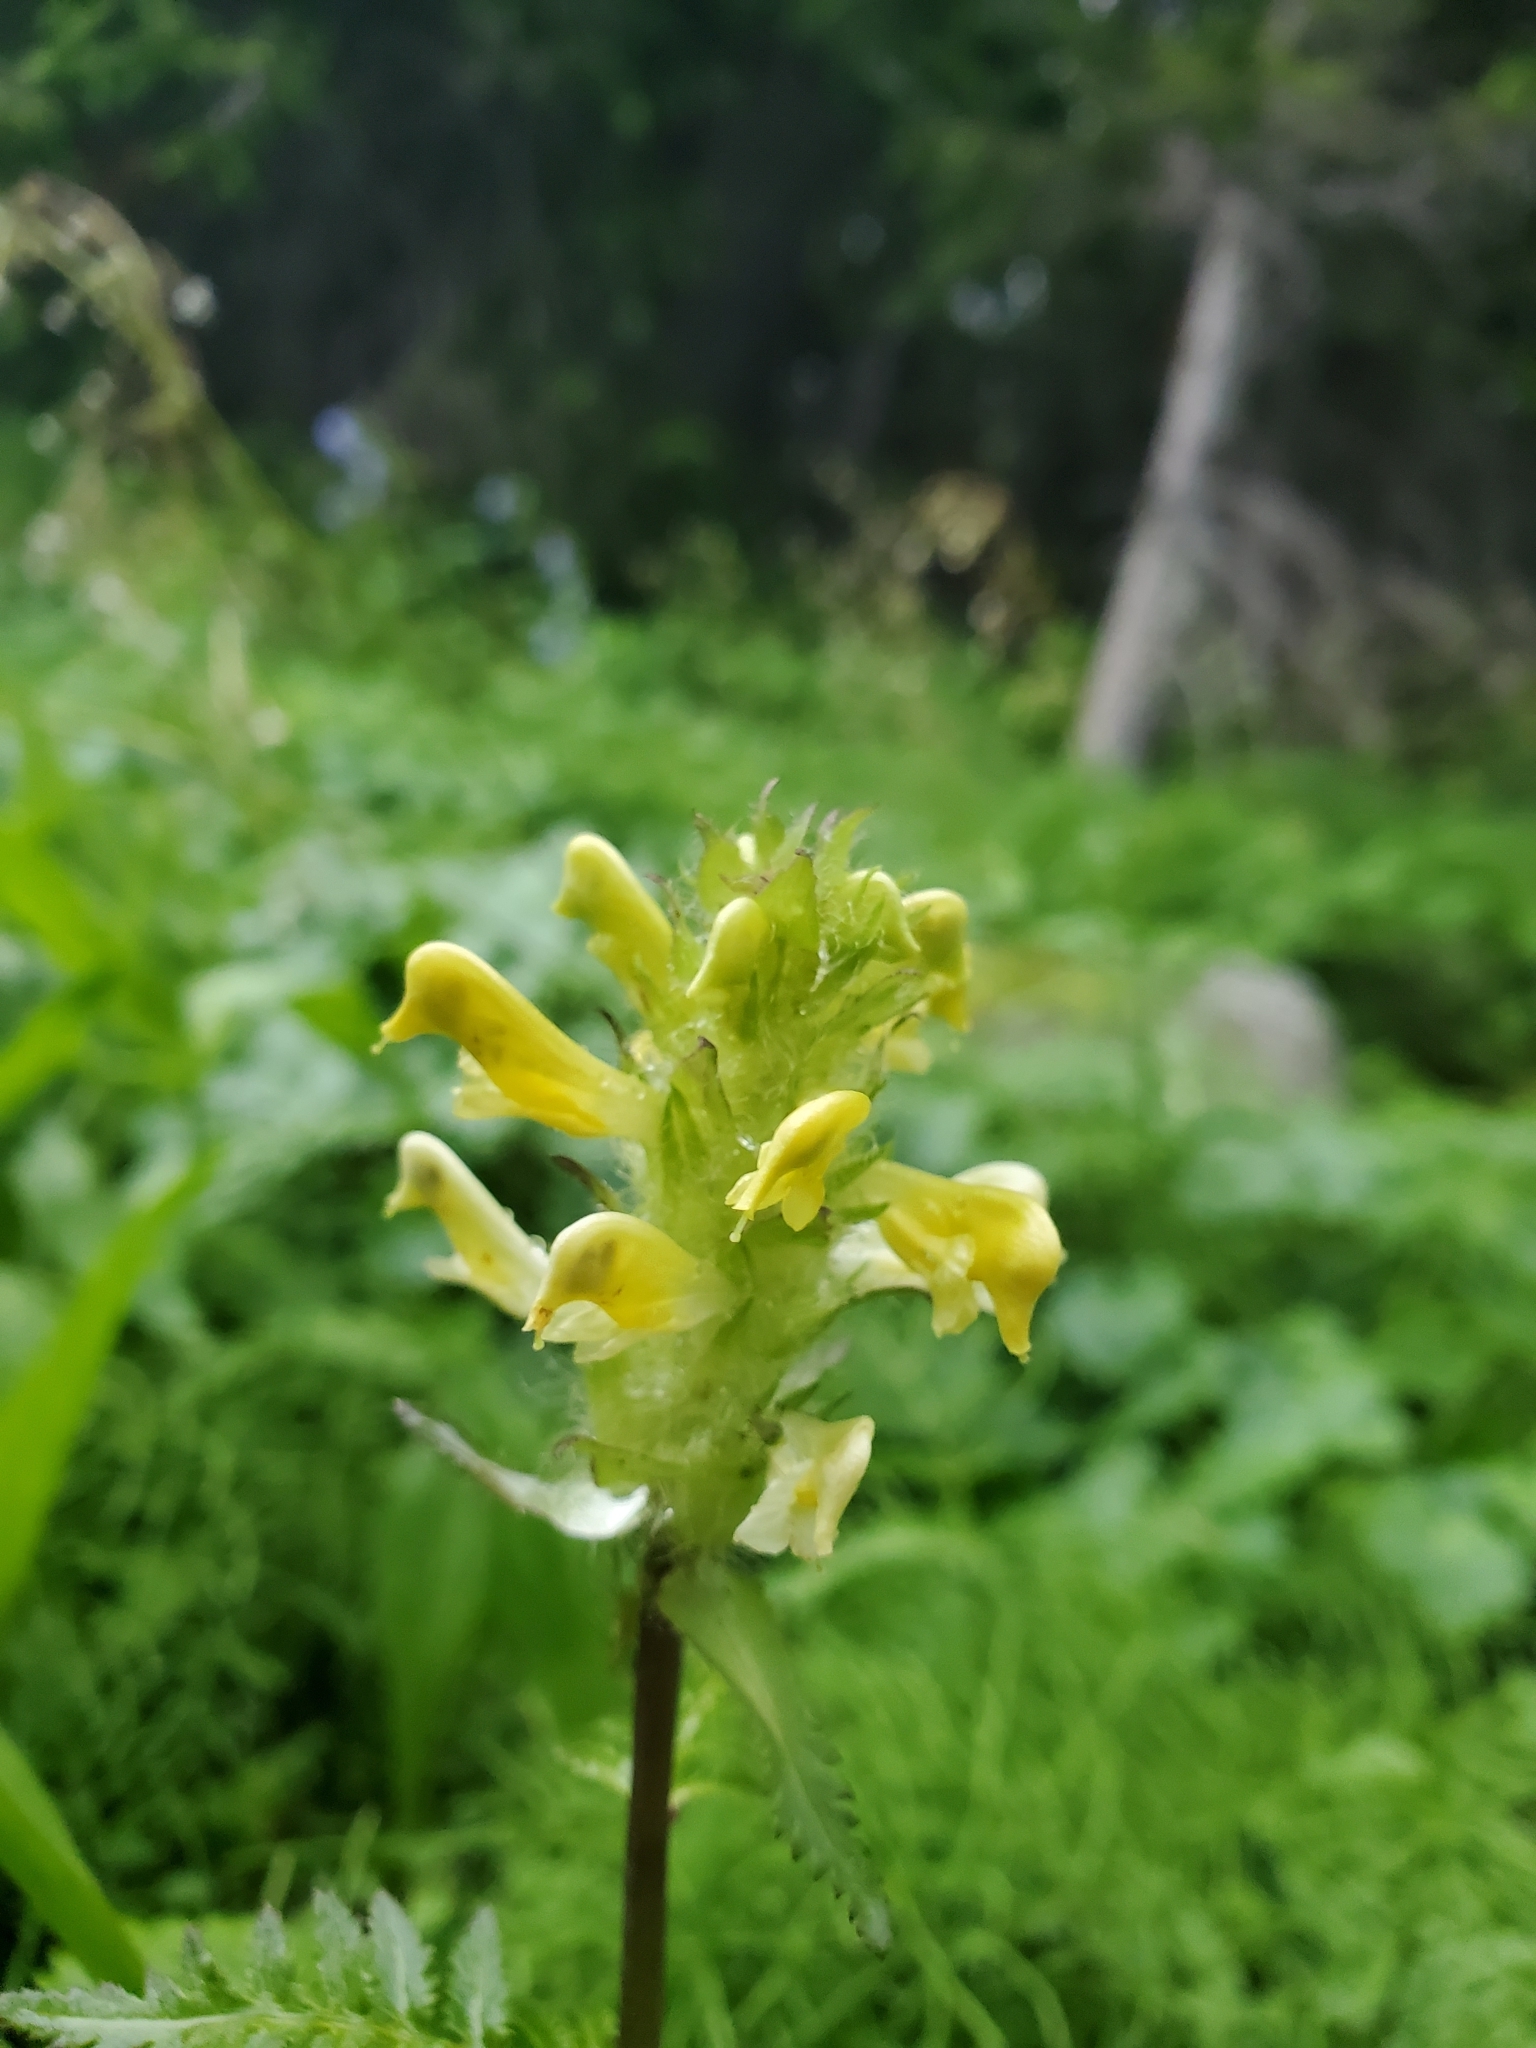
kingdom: Plantae
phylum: Tracheophyta
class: Magnoliopsida
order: Lamiales
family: Orobanchaceae
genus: Pedicularis
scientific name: Pedicularis bracteosa
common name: Bracted lousewort
